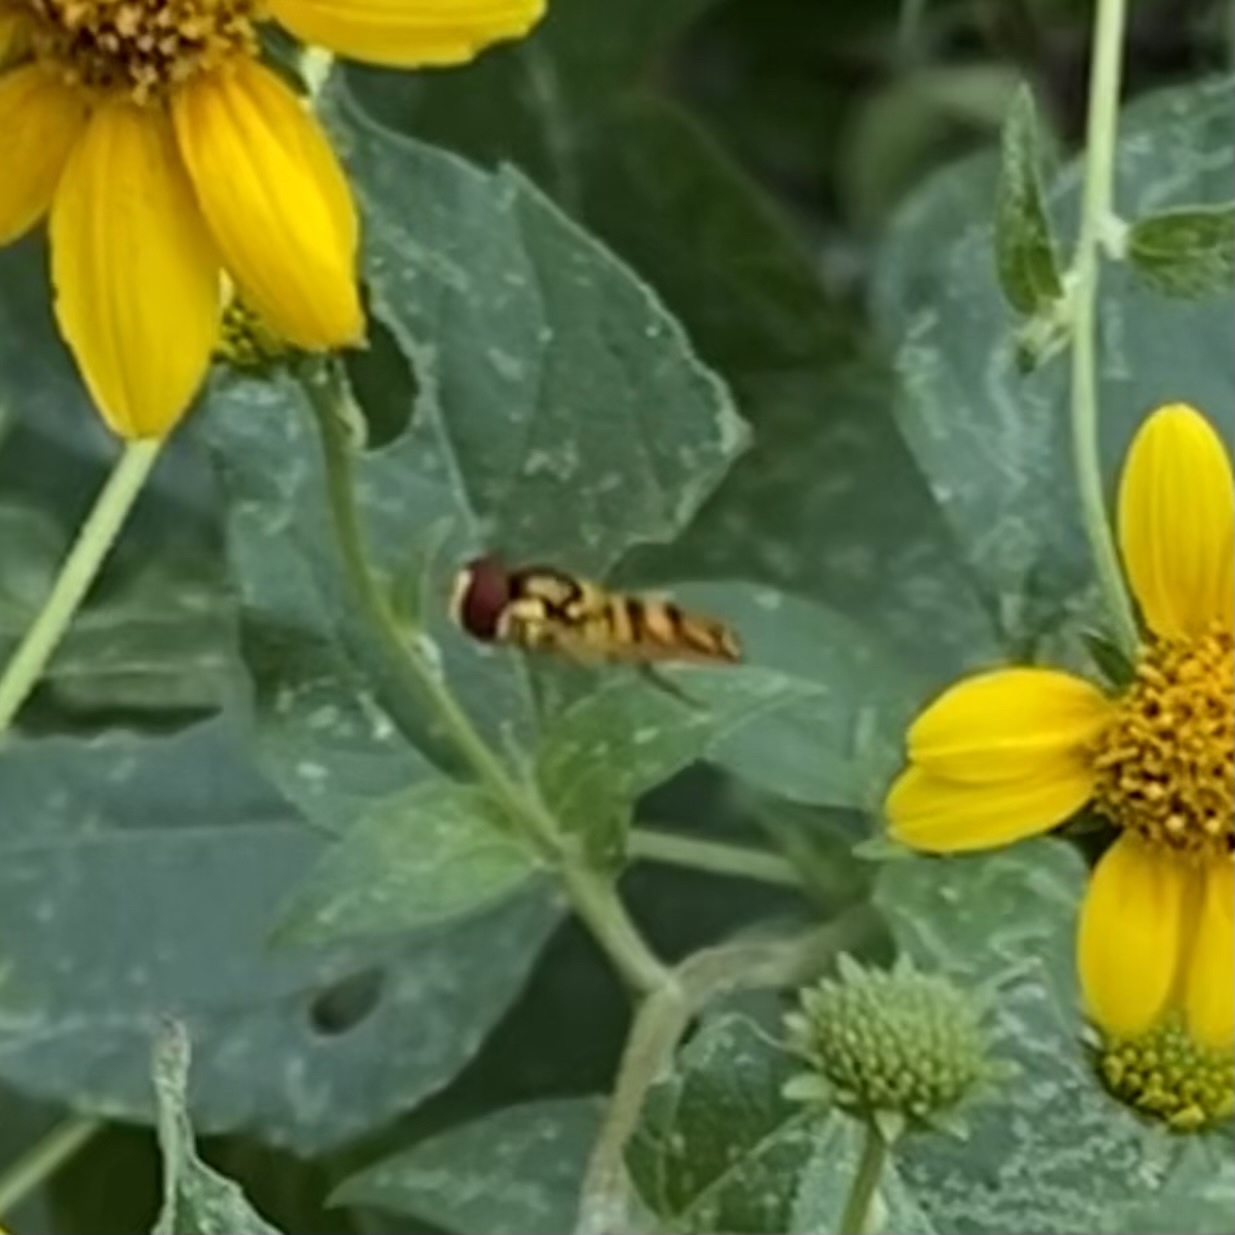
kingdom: Animalia
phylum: Arthropoda
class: Insecta
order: Diptera
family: Syrphidae
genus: Allograpta
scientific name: Allograpta
